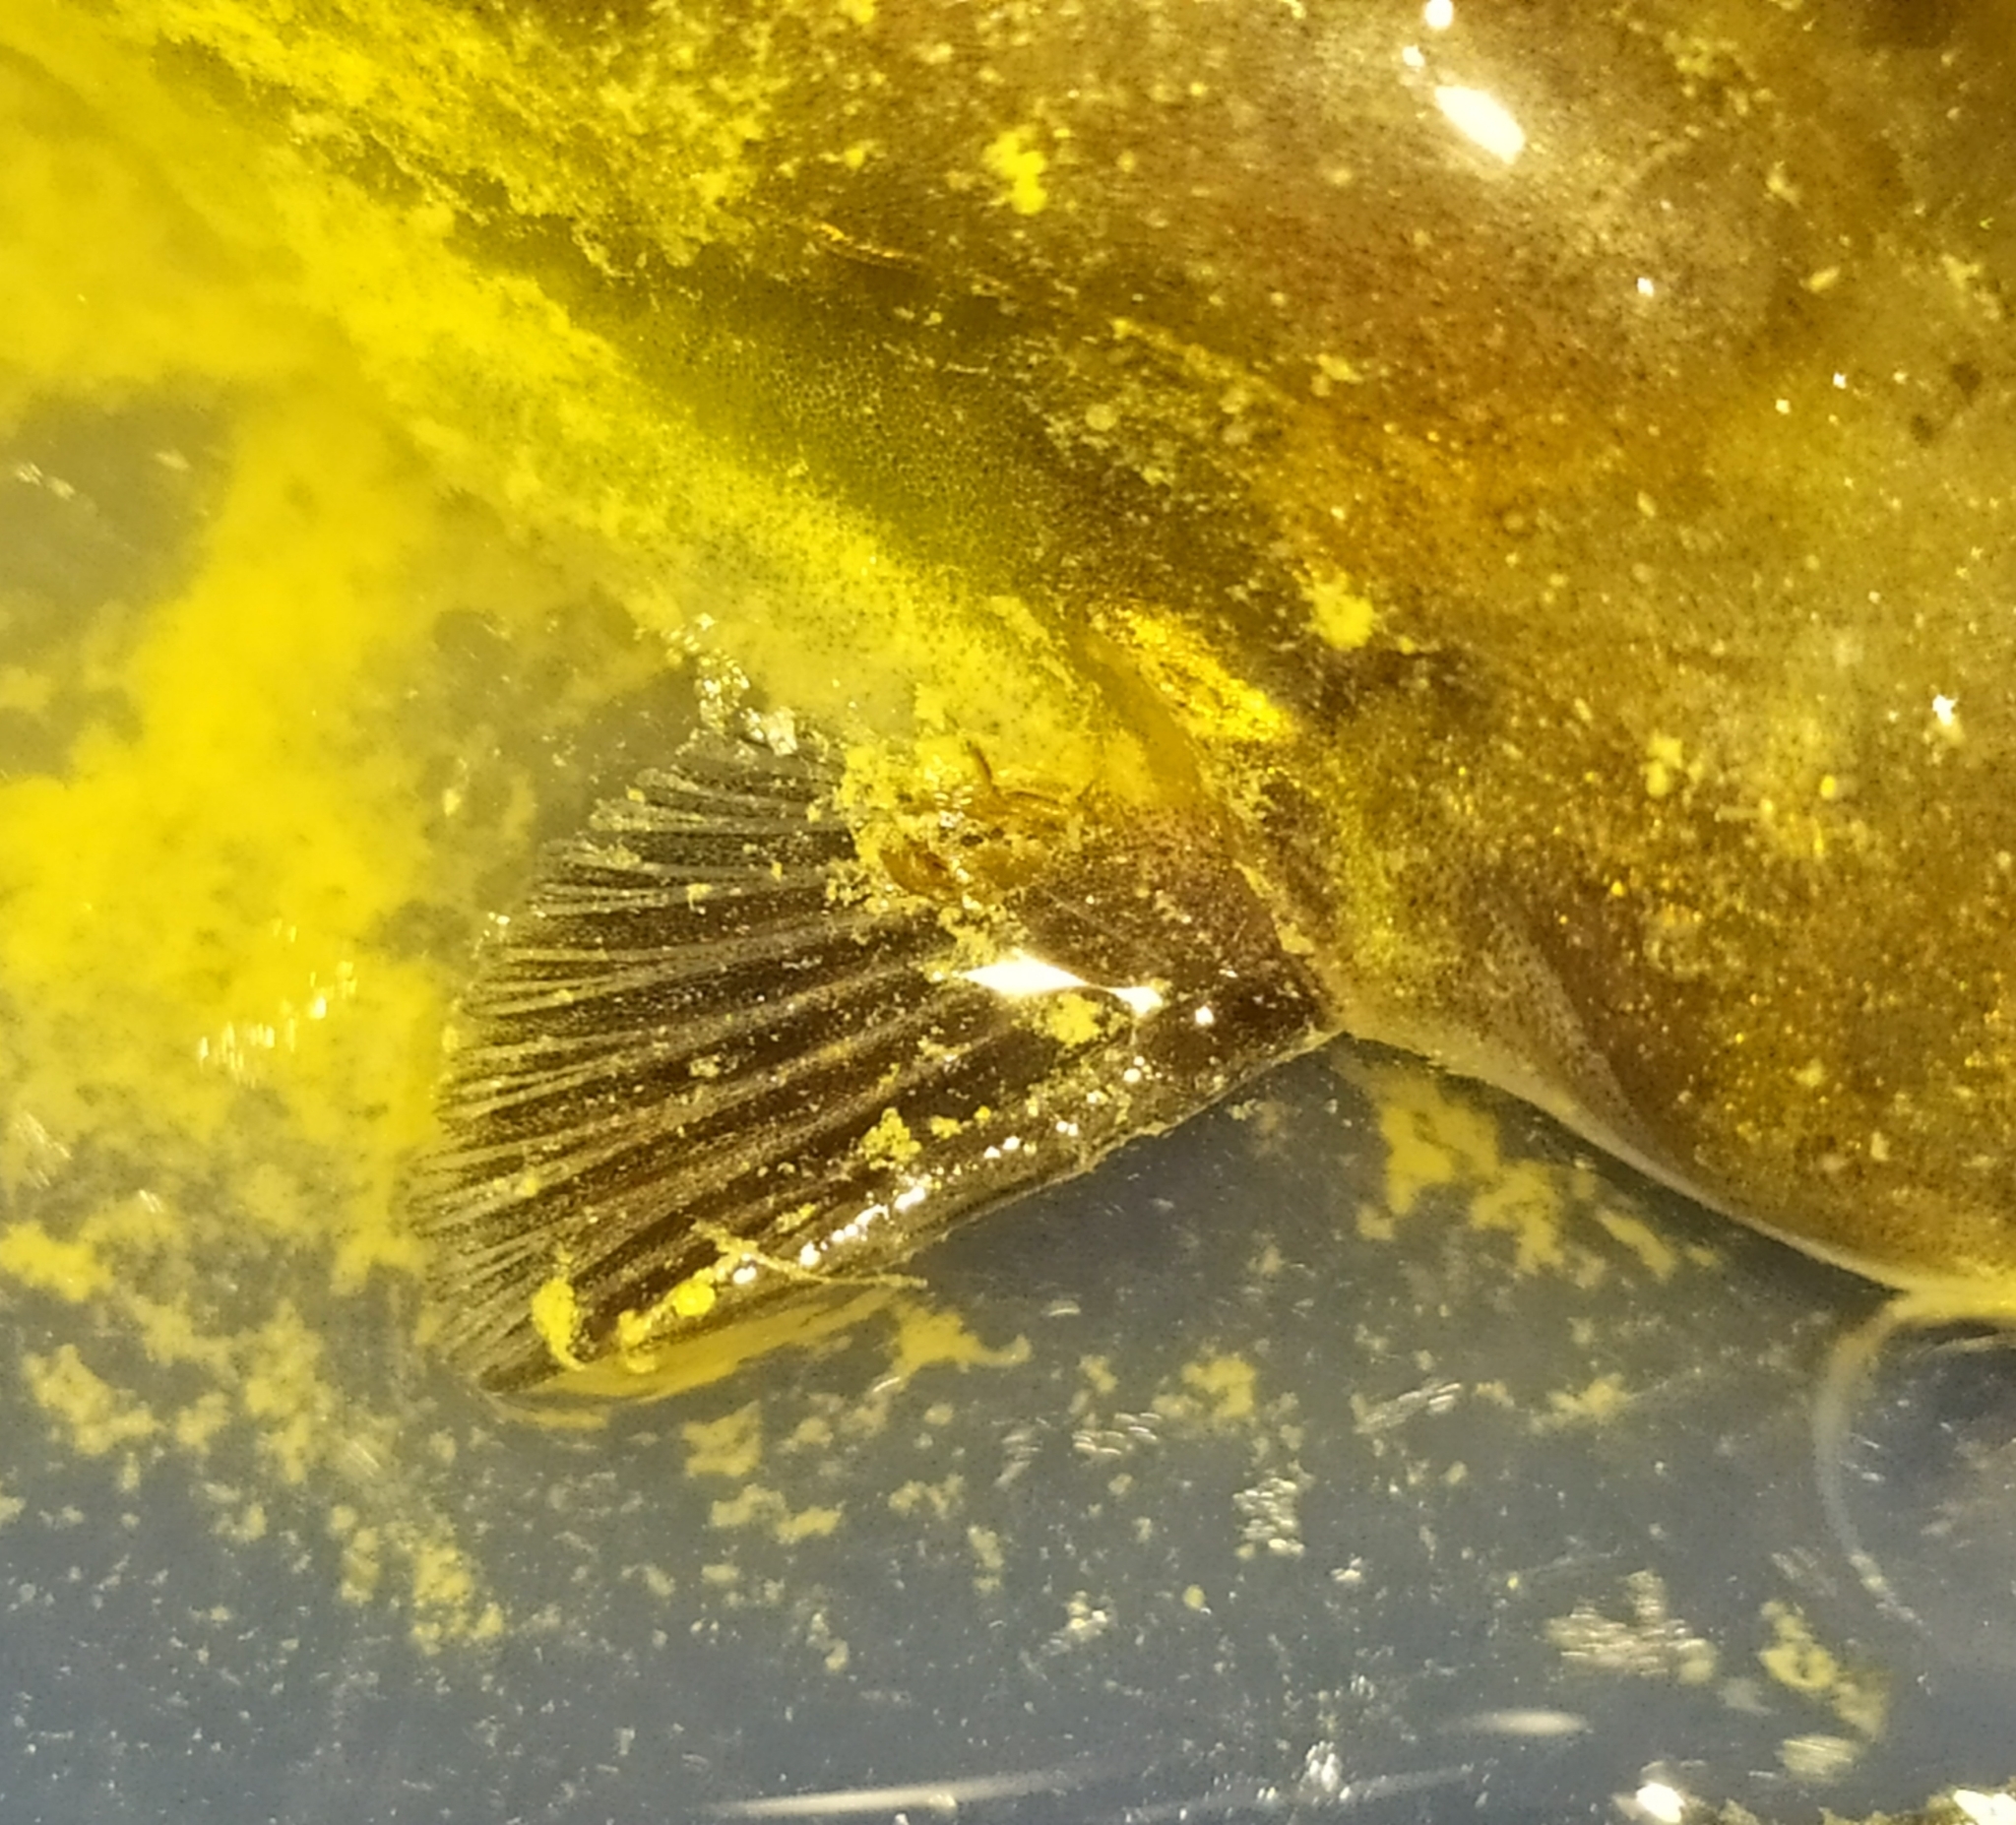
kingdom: Animalia
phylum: Chordata
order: Siluriformes
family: Ictaluridae
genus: Ameiurus
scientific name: Ameiurus melas
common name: Black bullhead
